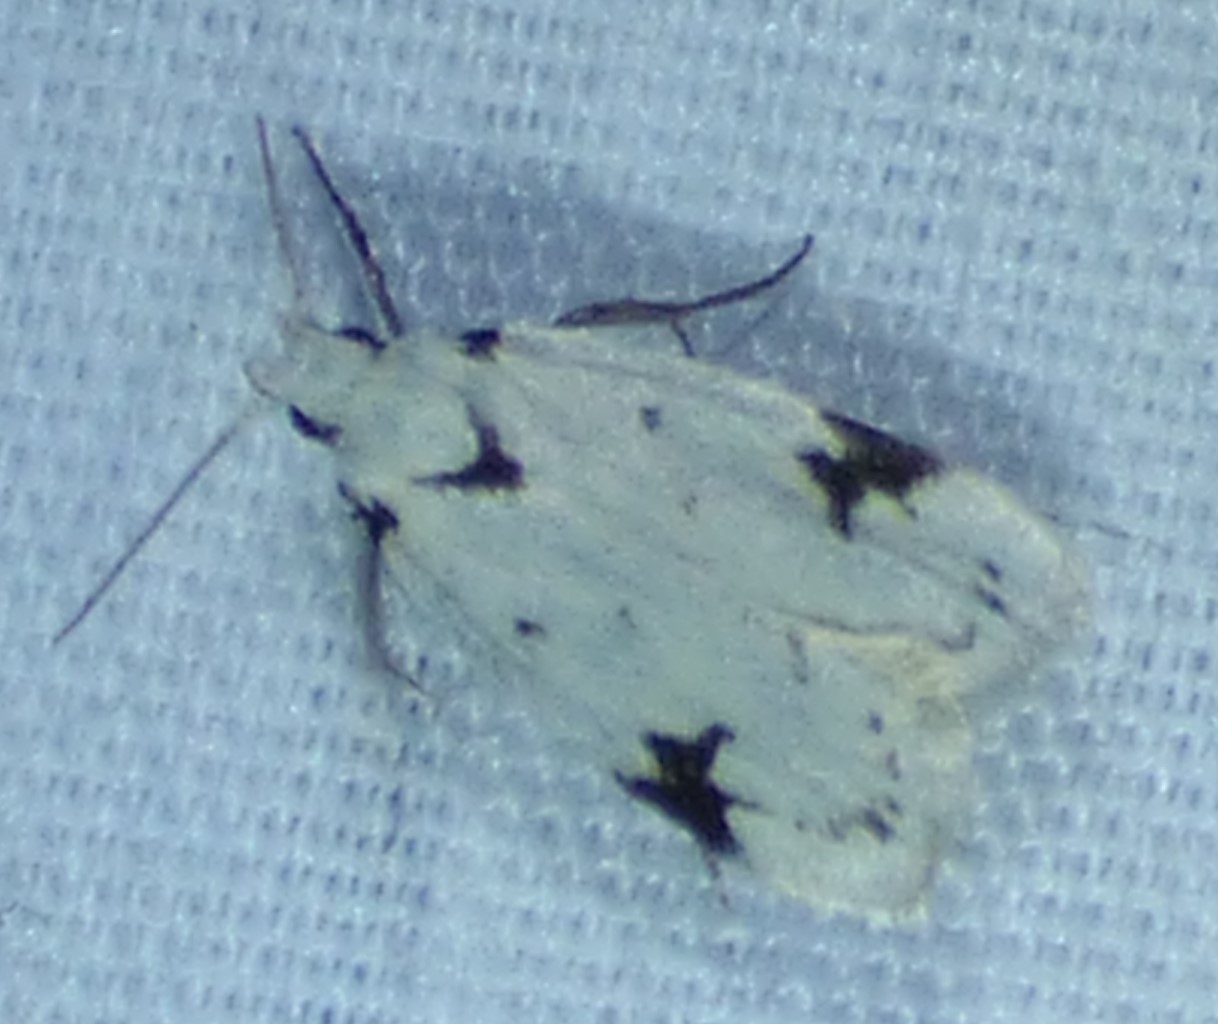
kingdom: Animalia
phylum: Arthropoda
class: Insecta
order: Lepidoptera
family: Oecophoridae
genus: Inga
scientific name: Inga sparsiciliella
